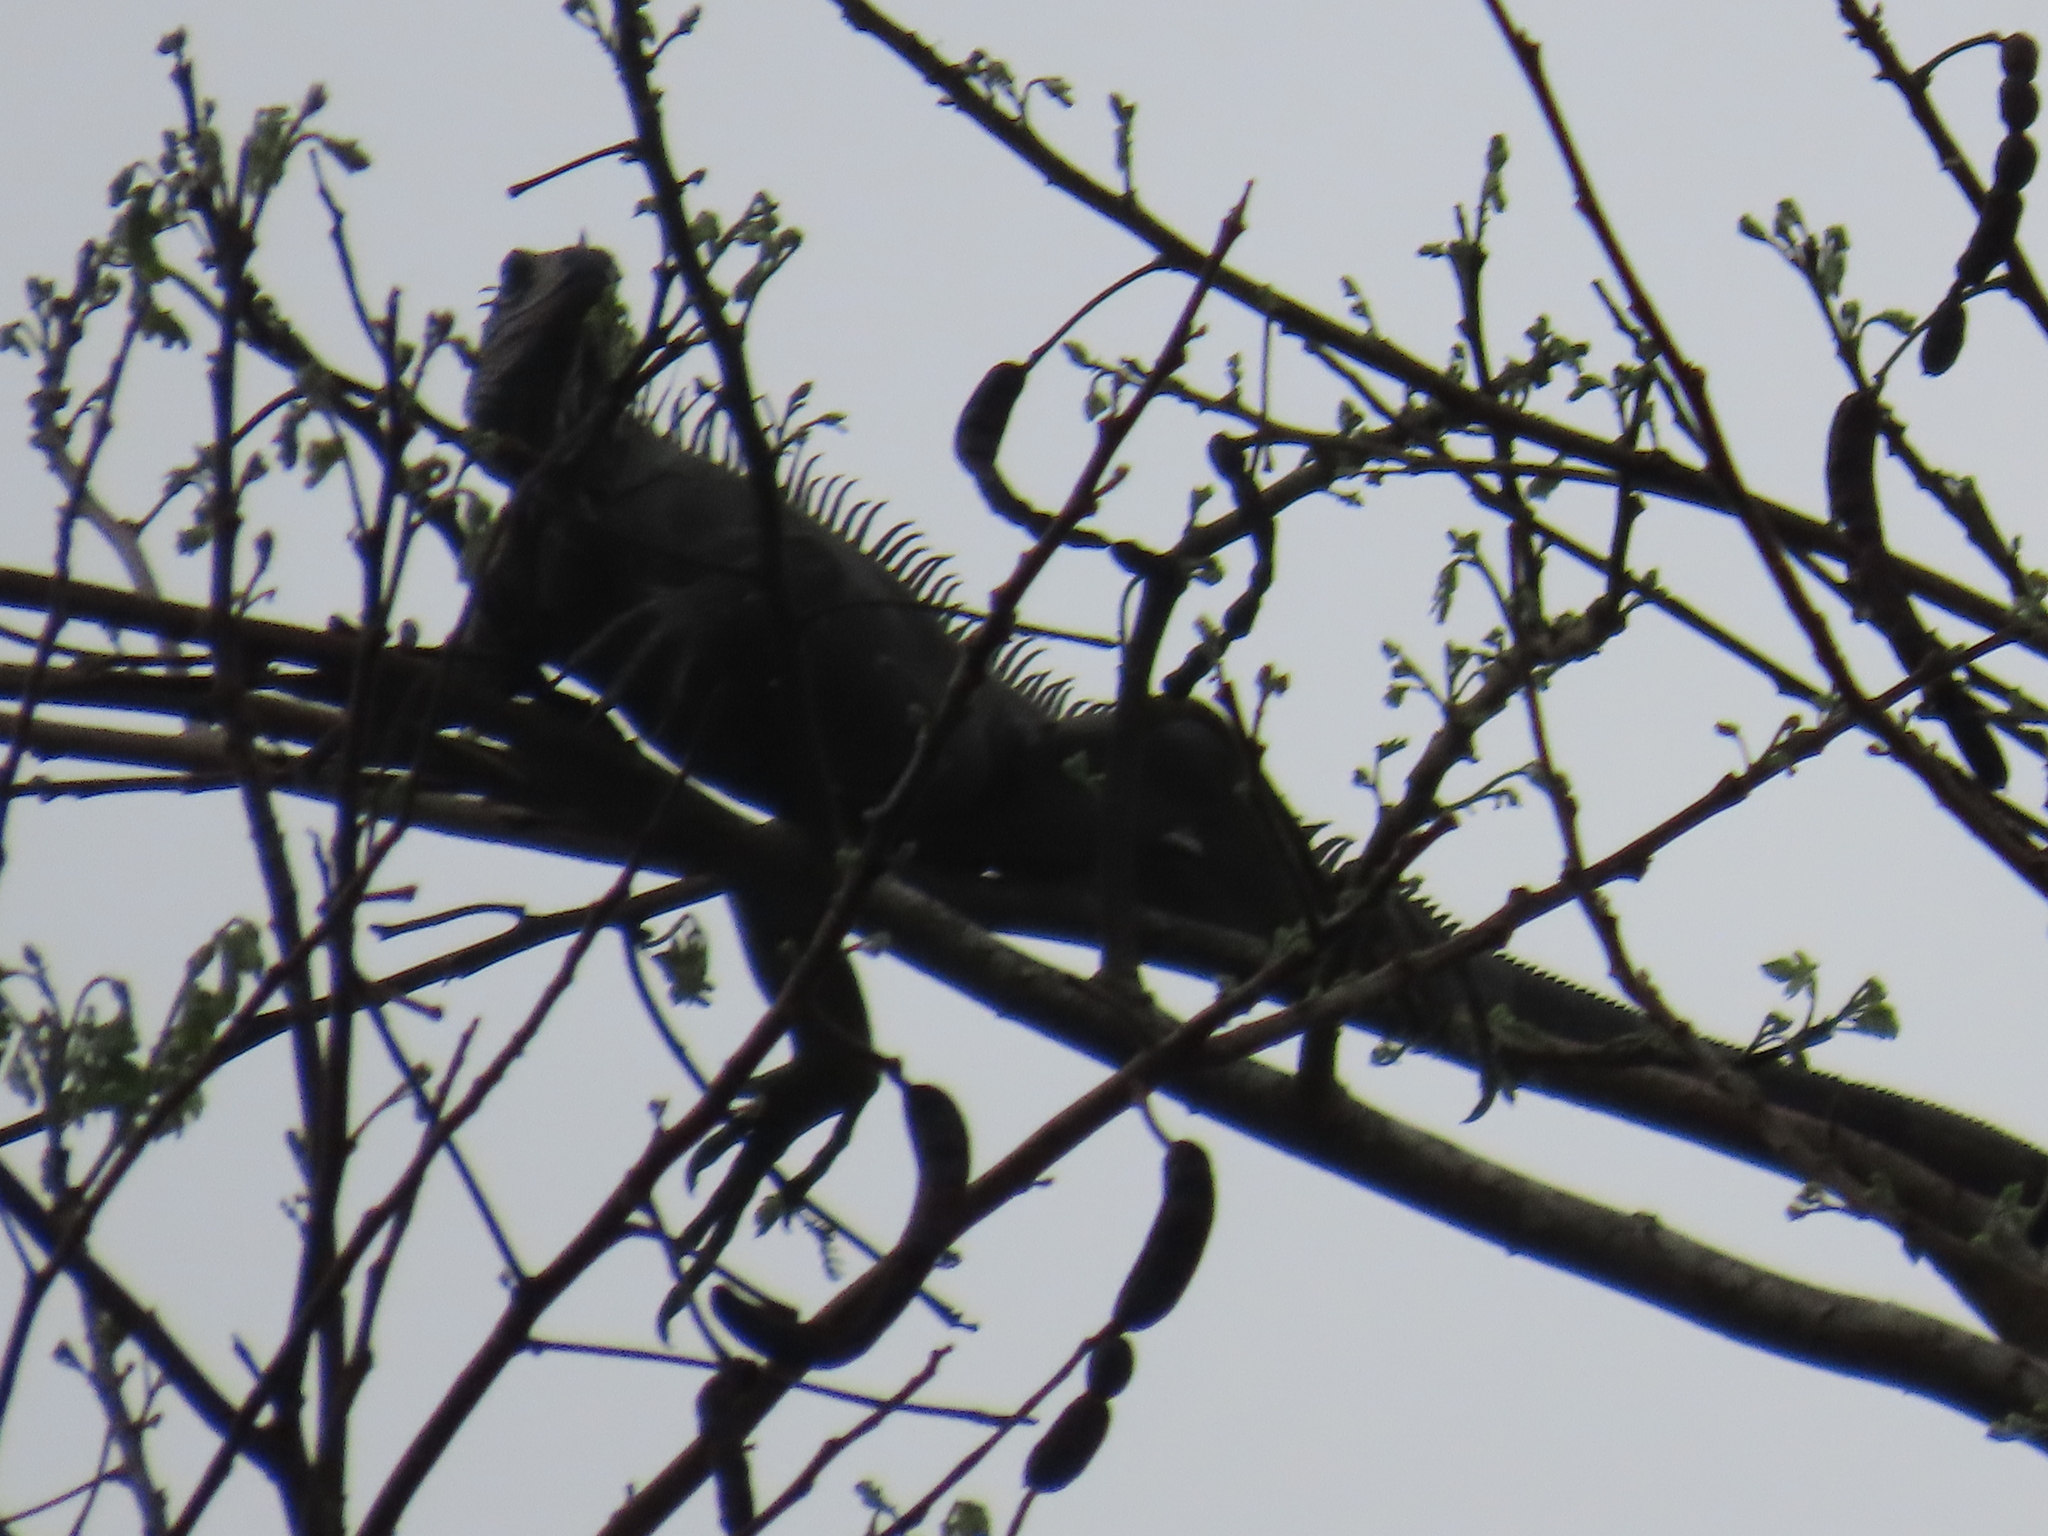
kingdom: Animalia
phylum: Chordata
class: Squamata
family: Iguanidae
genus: Iguana
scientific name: Iguana iguana
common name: Green iguana
